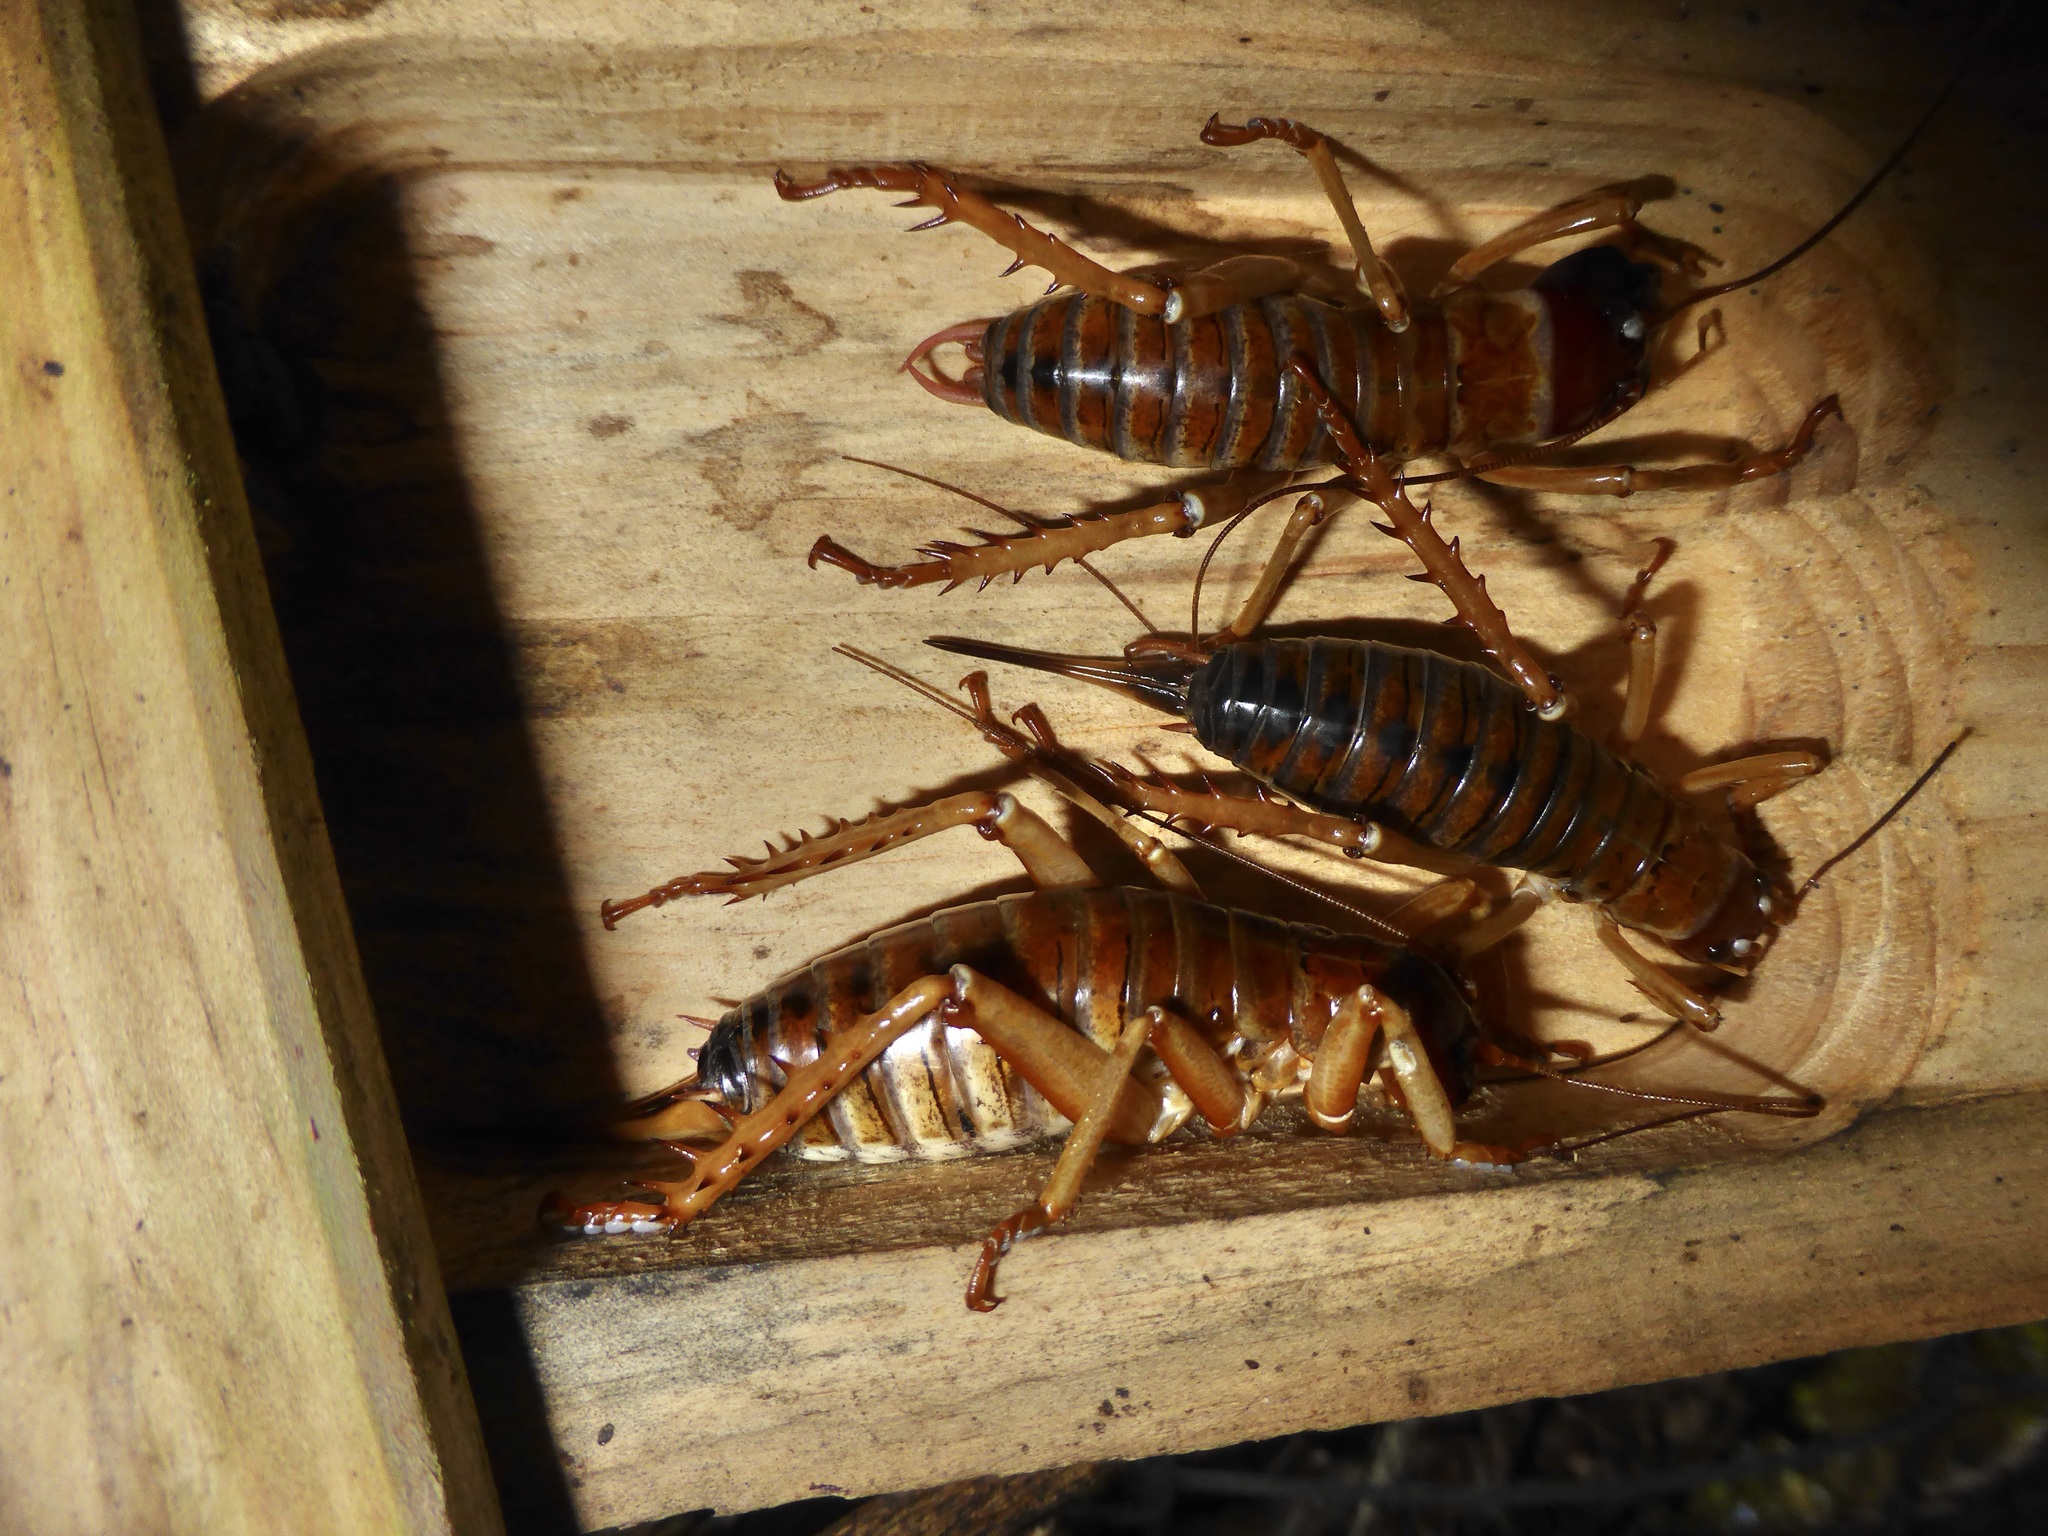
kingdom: Animalia
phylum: Arthropoda
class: Insecta
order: Orthoptera
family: Anostostomatidae
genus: Hemideina
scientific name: Hemideina ricta
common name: Banks peninsula tree weta
